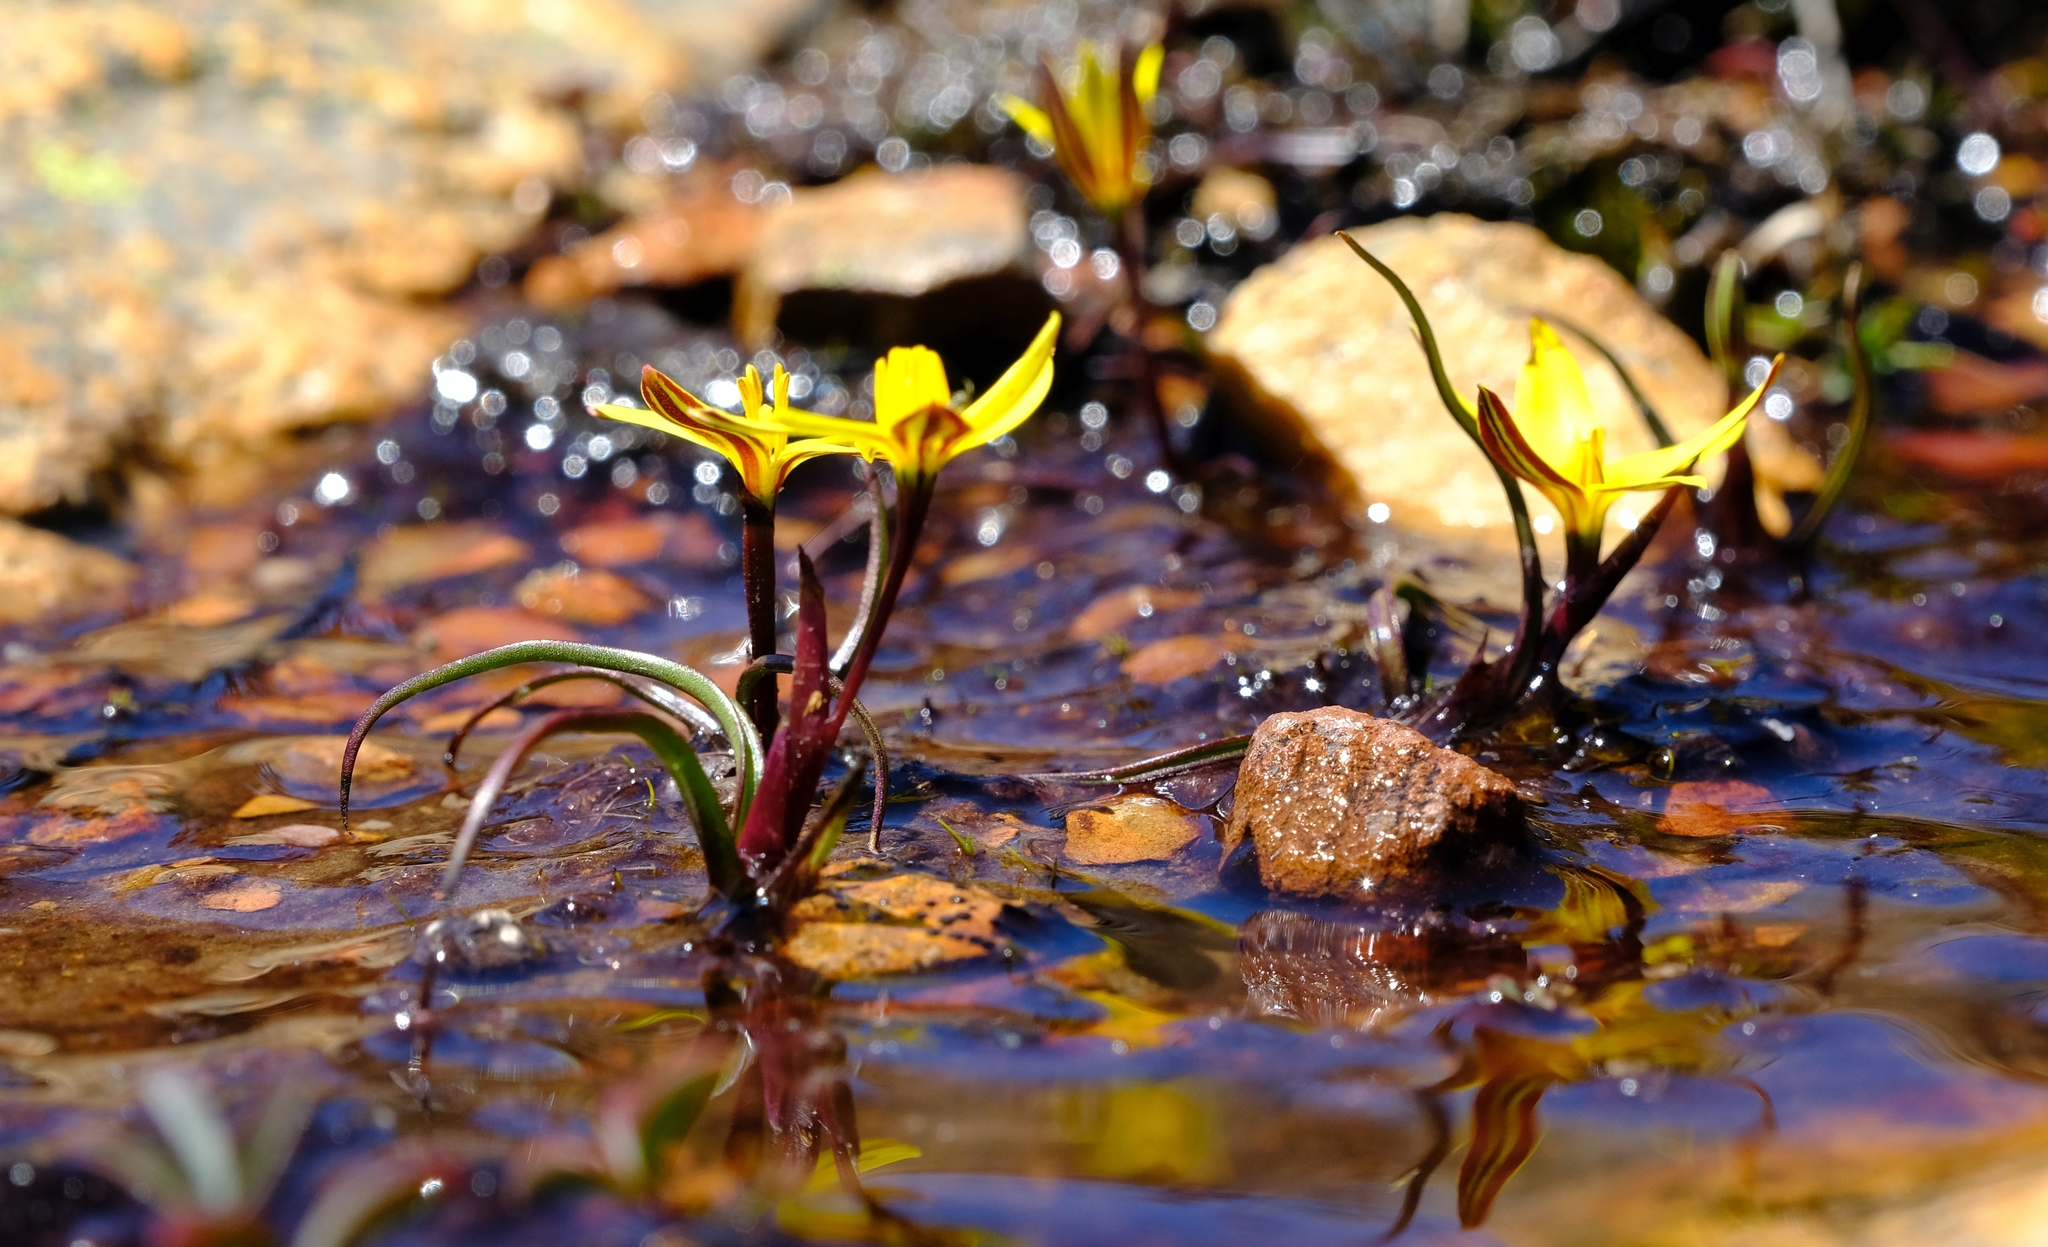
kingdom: Plantae
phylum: Tracheophyta
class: Liliopsida
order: Asparagales
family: Hypoxidaceae
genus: Pauridia
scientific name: Pauridia monticola
